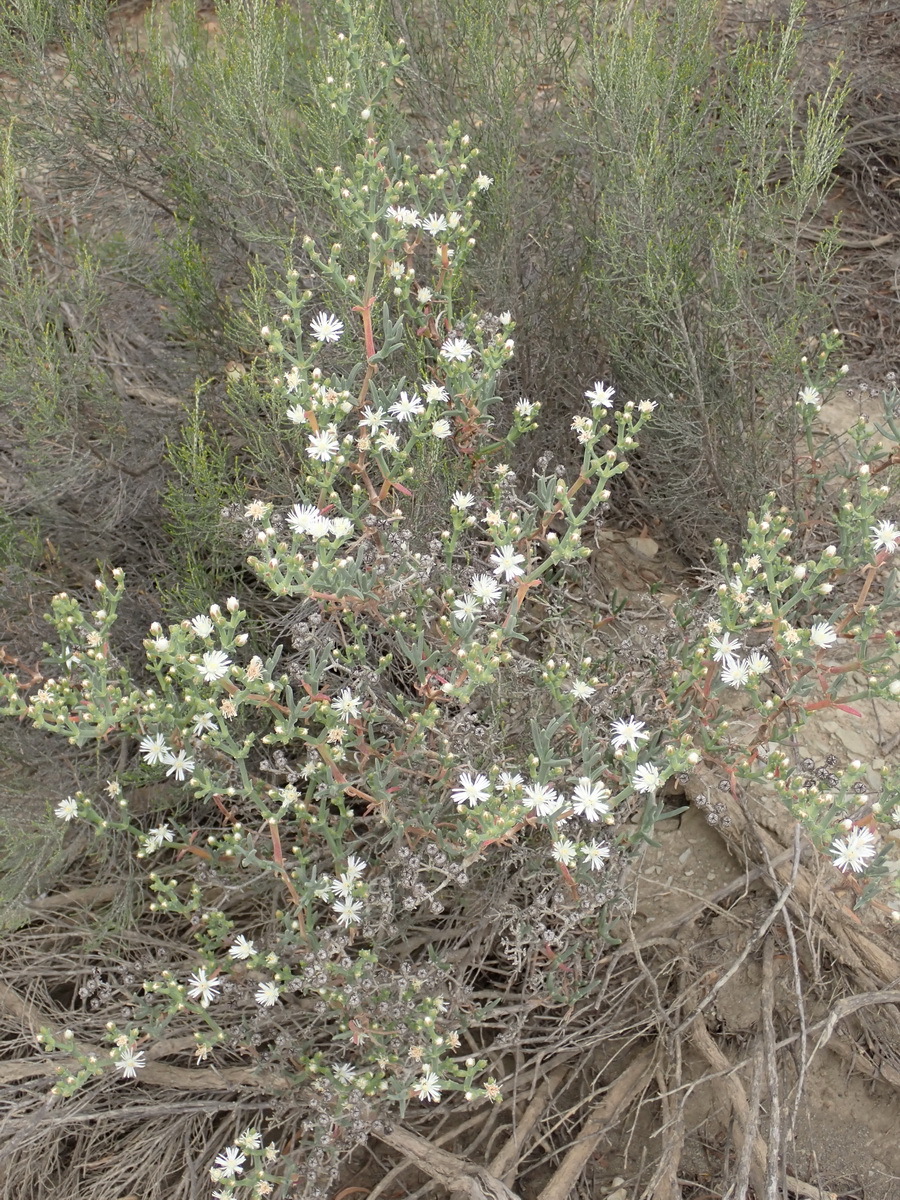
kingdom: Plantae
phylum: Tracheophyta
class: Magnoliopsida
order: Caryophyllales
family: Aizoaceae
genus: Ruschia
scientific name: Ruschia multiflora
